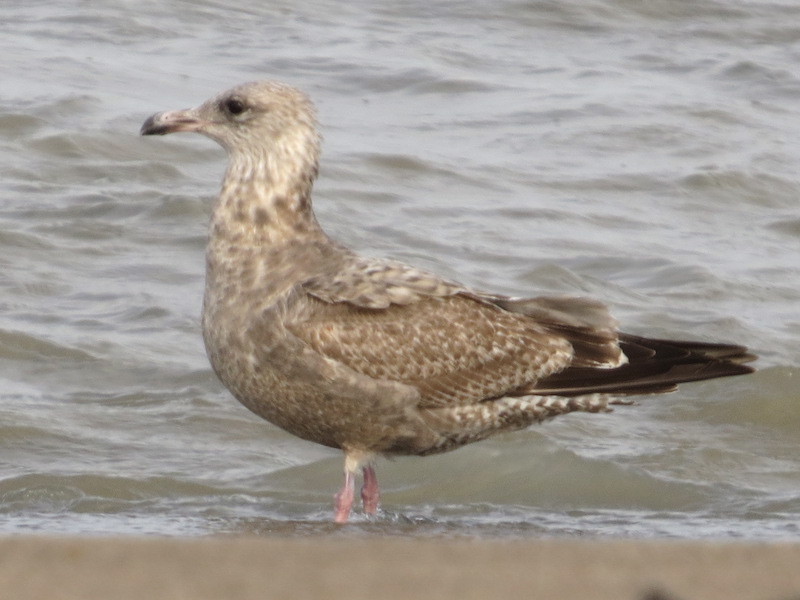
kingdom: Animalia
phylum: Chordata
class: Aves
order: Charadriiformes
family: Laridae
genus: Larus
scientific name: Larus argentatus
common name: Herring gull
